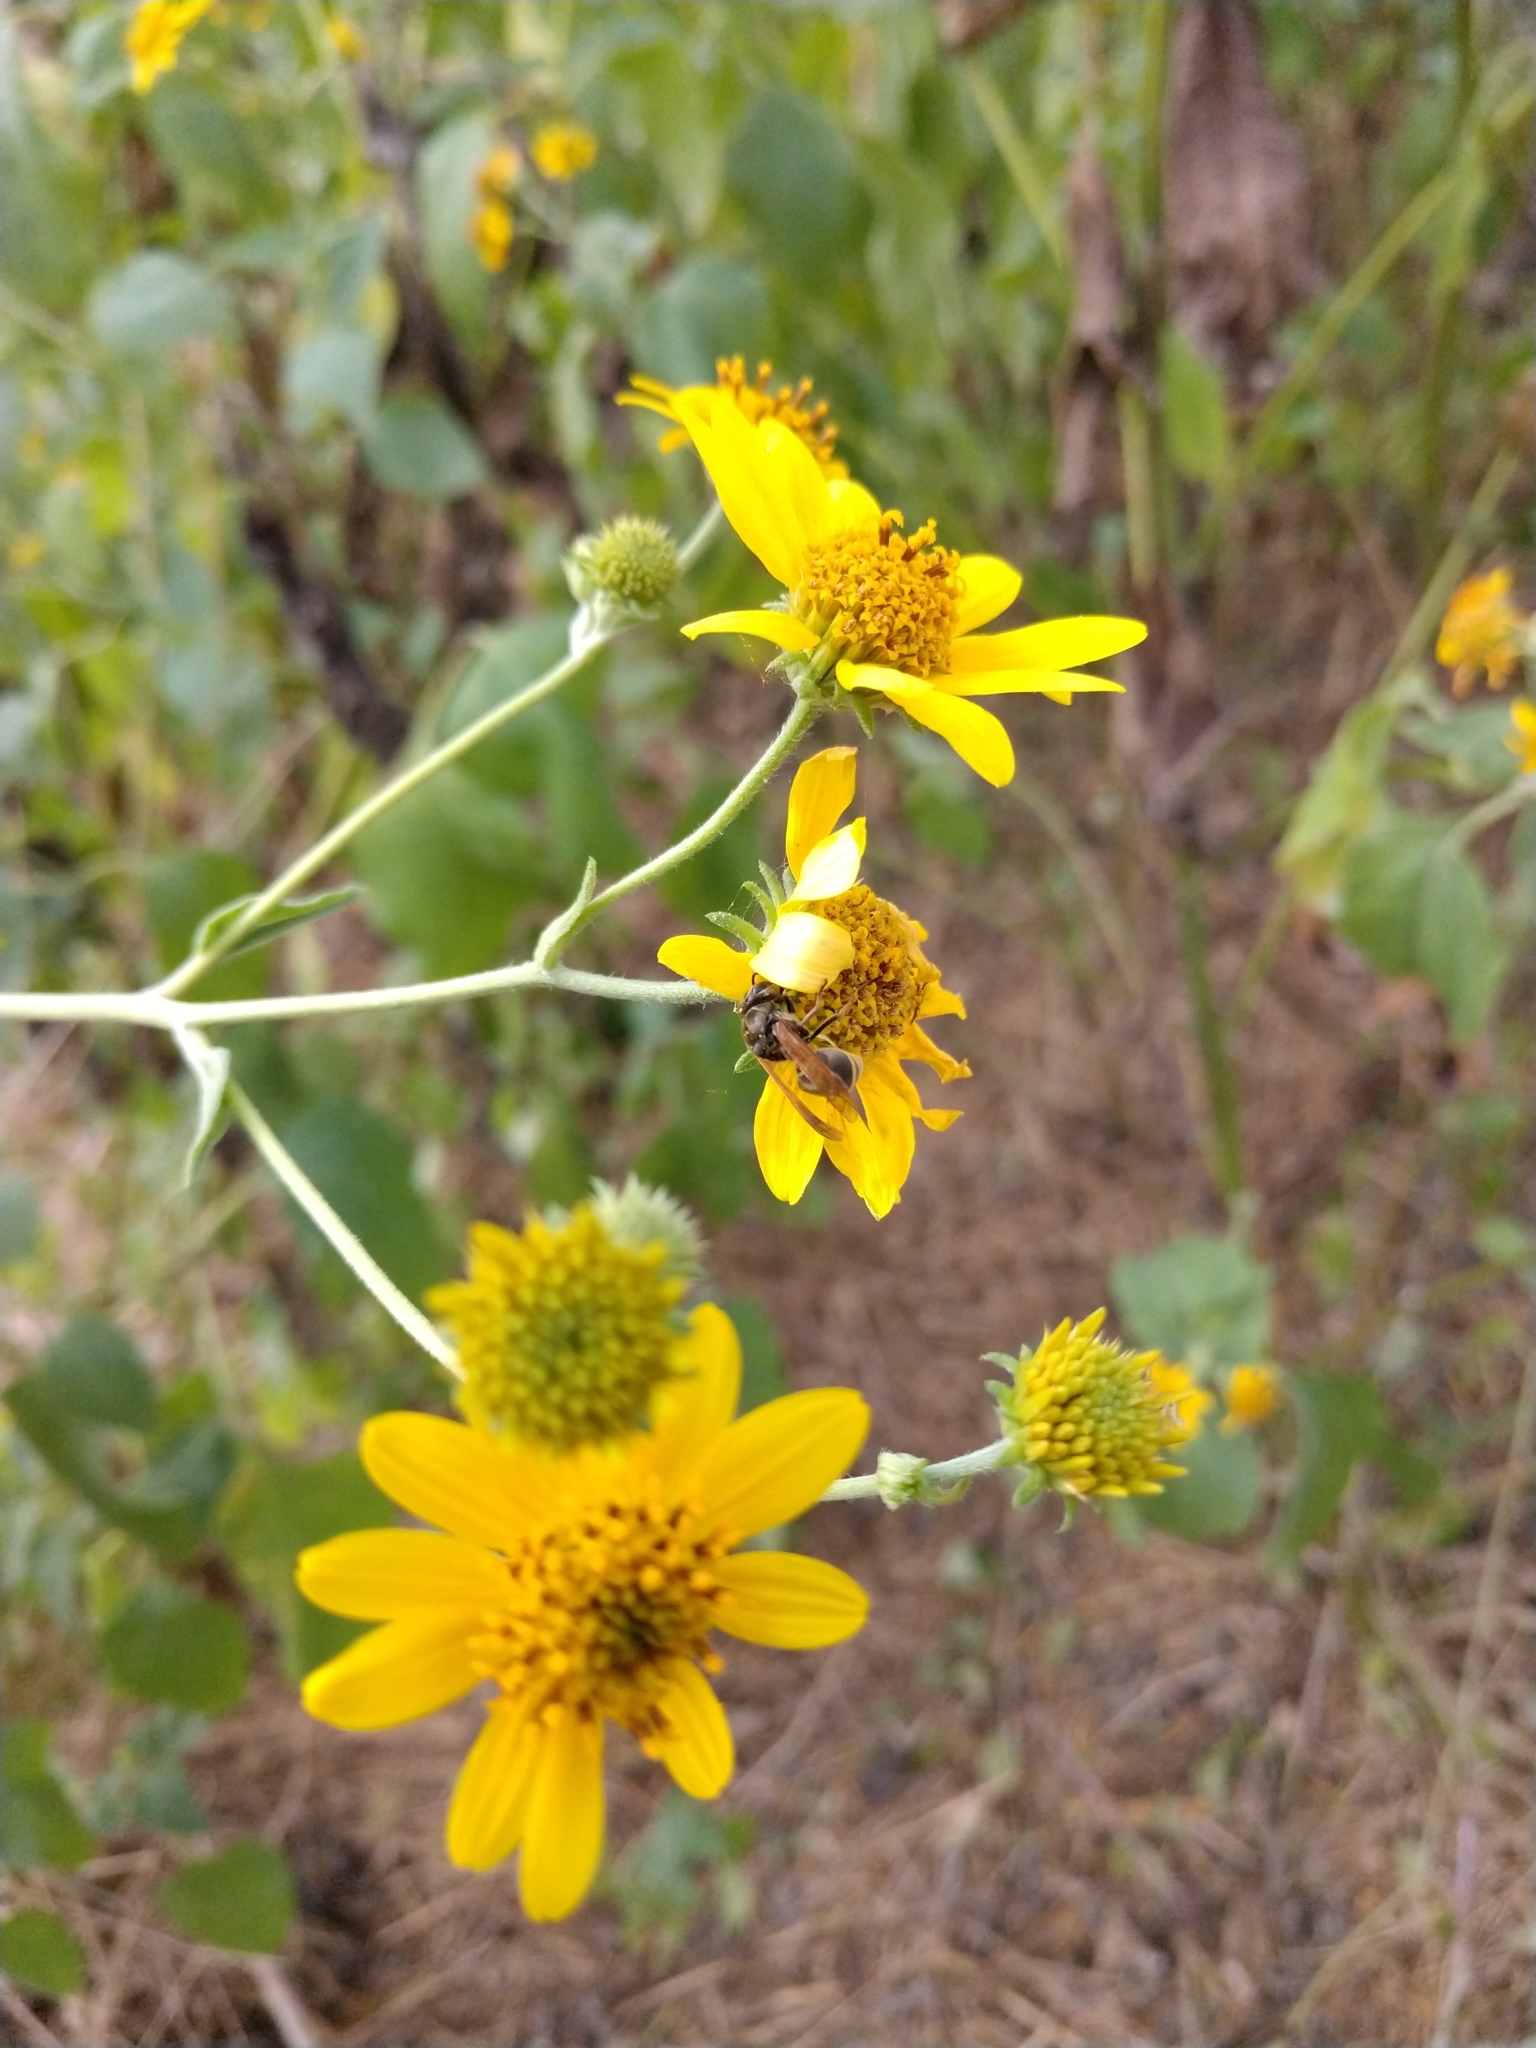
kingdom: Animalia
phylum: Arthropoda
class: Insecta
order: Hymenoptera
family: Vespidae
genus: Brachygastra
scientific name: Brachygastra mellifica
